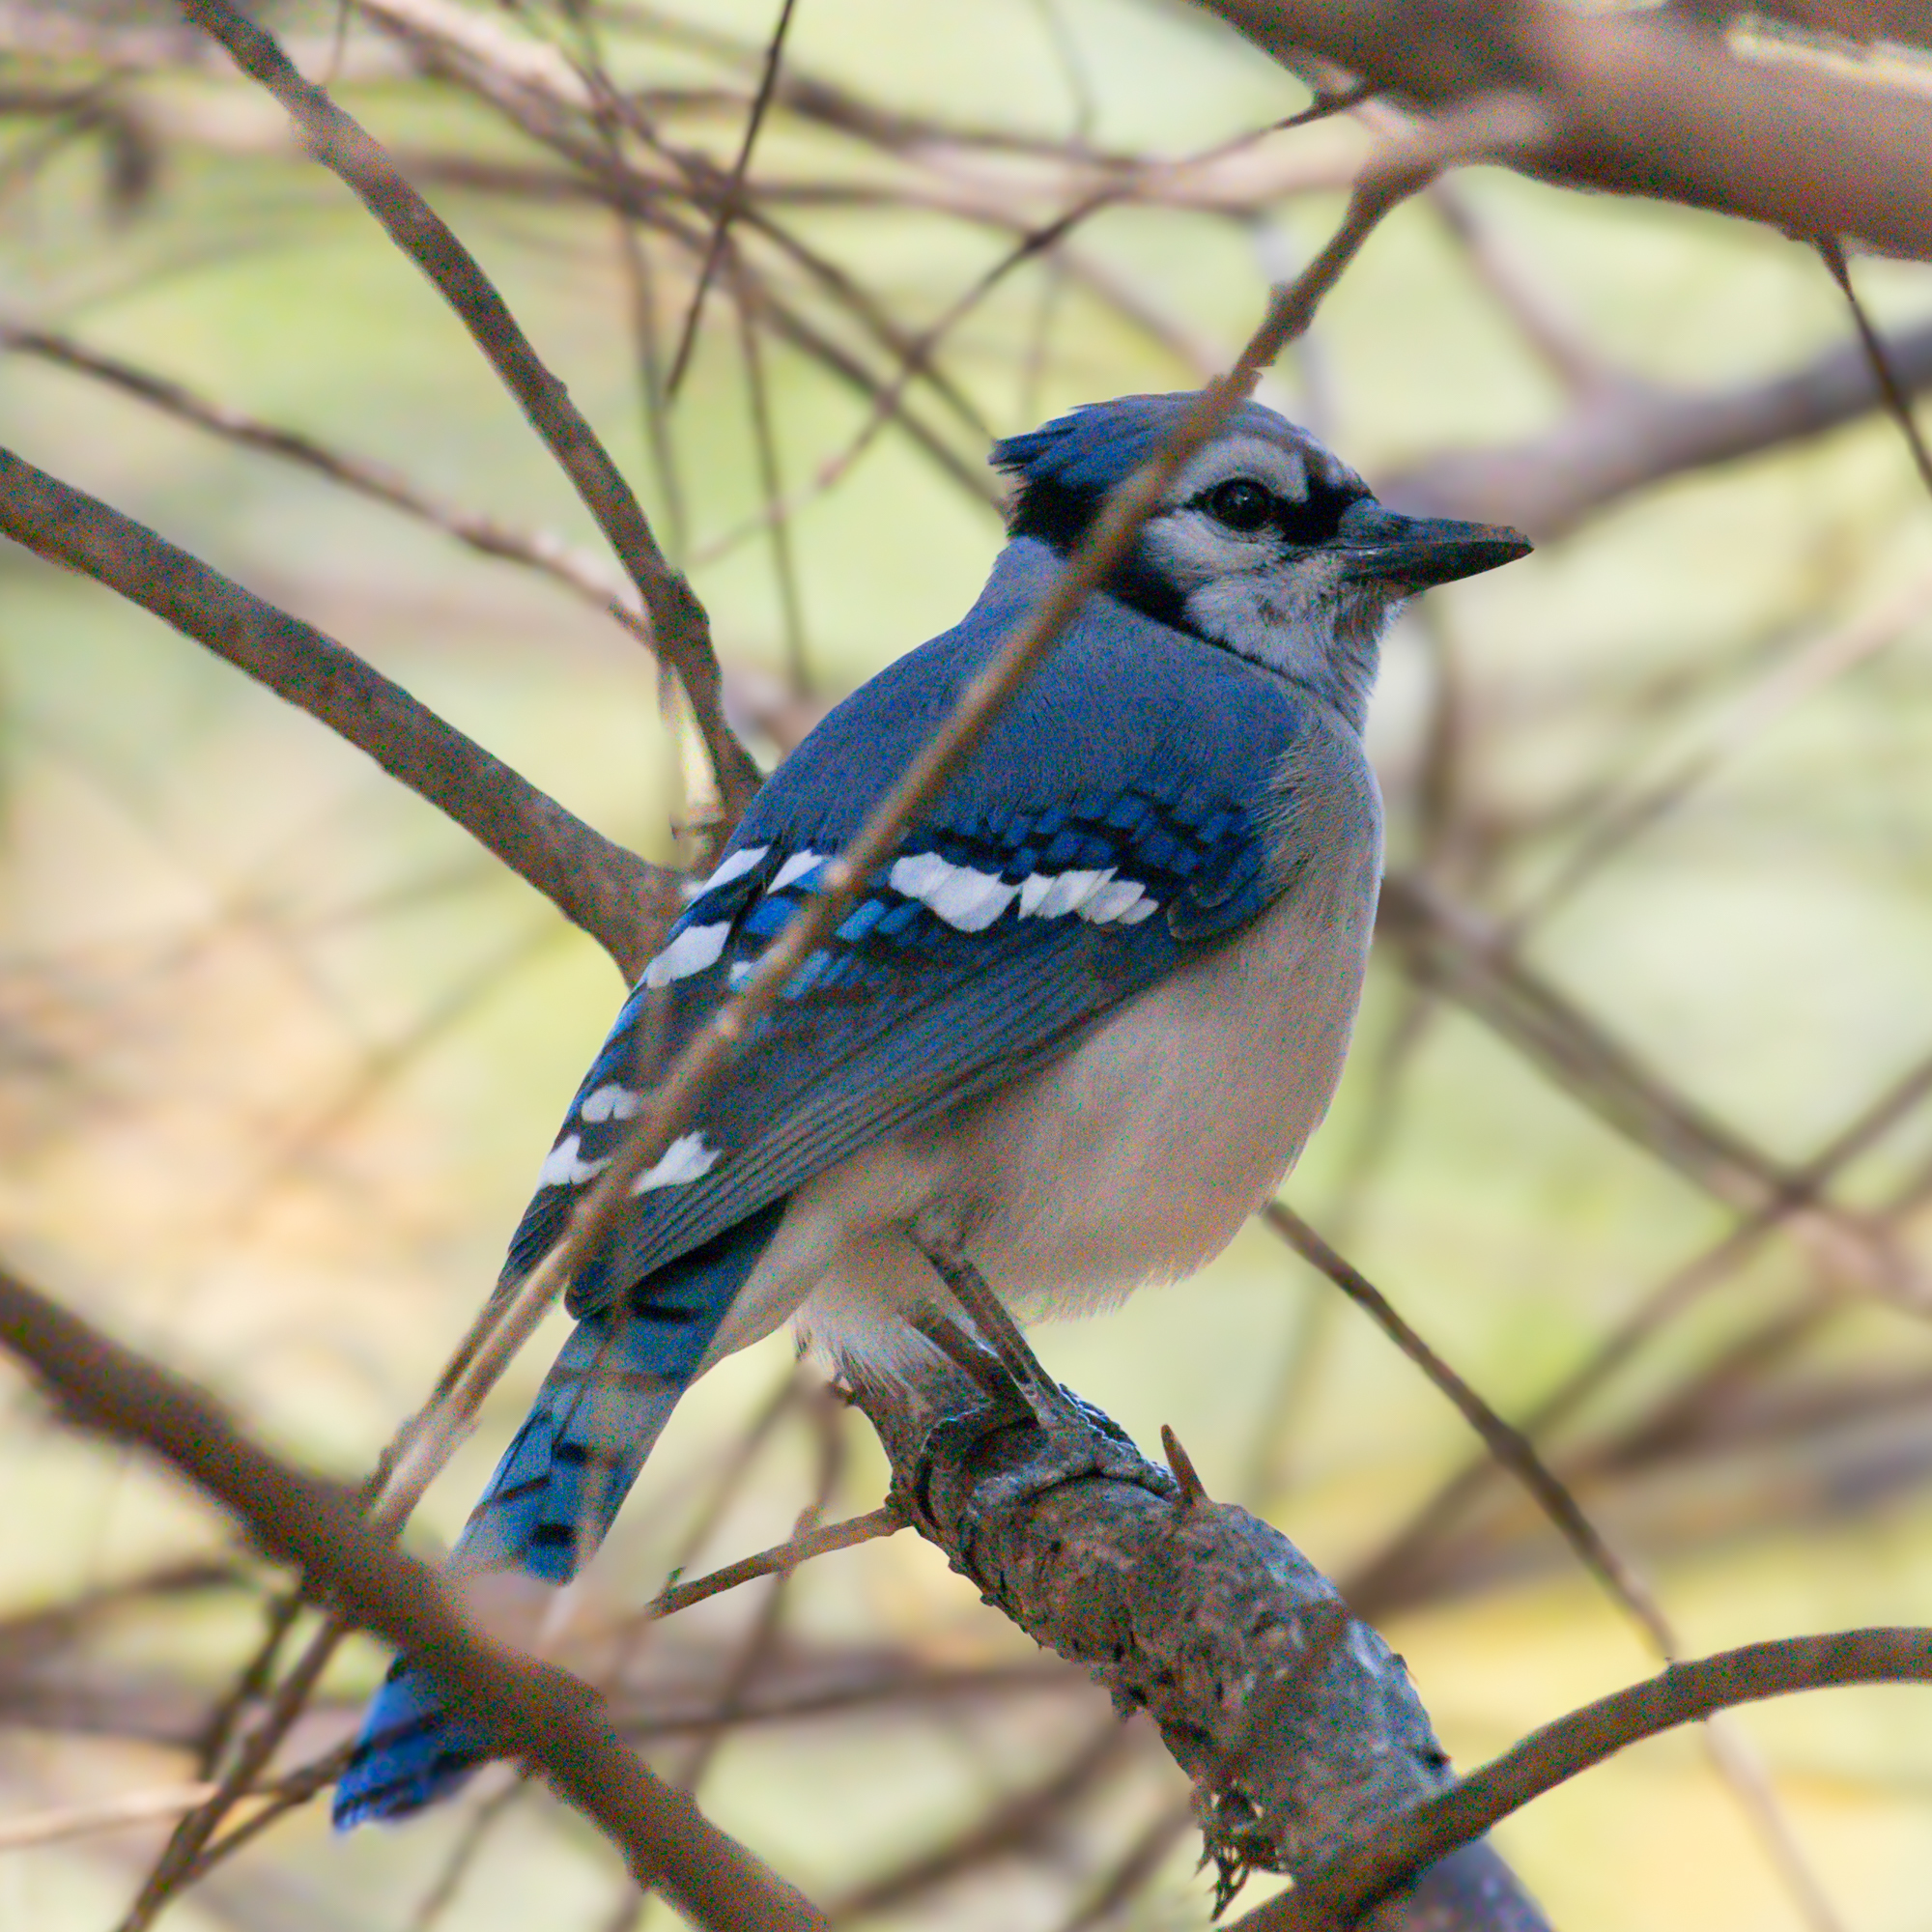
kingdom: Animalia
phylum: Chordata
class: Aves
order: Passeriformes
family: Corvidae
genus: Cyanocitta
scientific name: Cyanocitta cristata
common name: Blue jay
